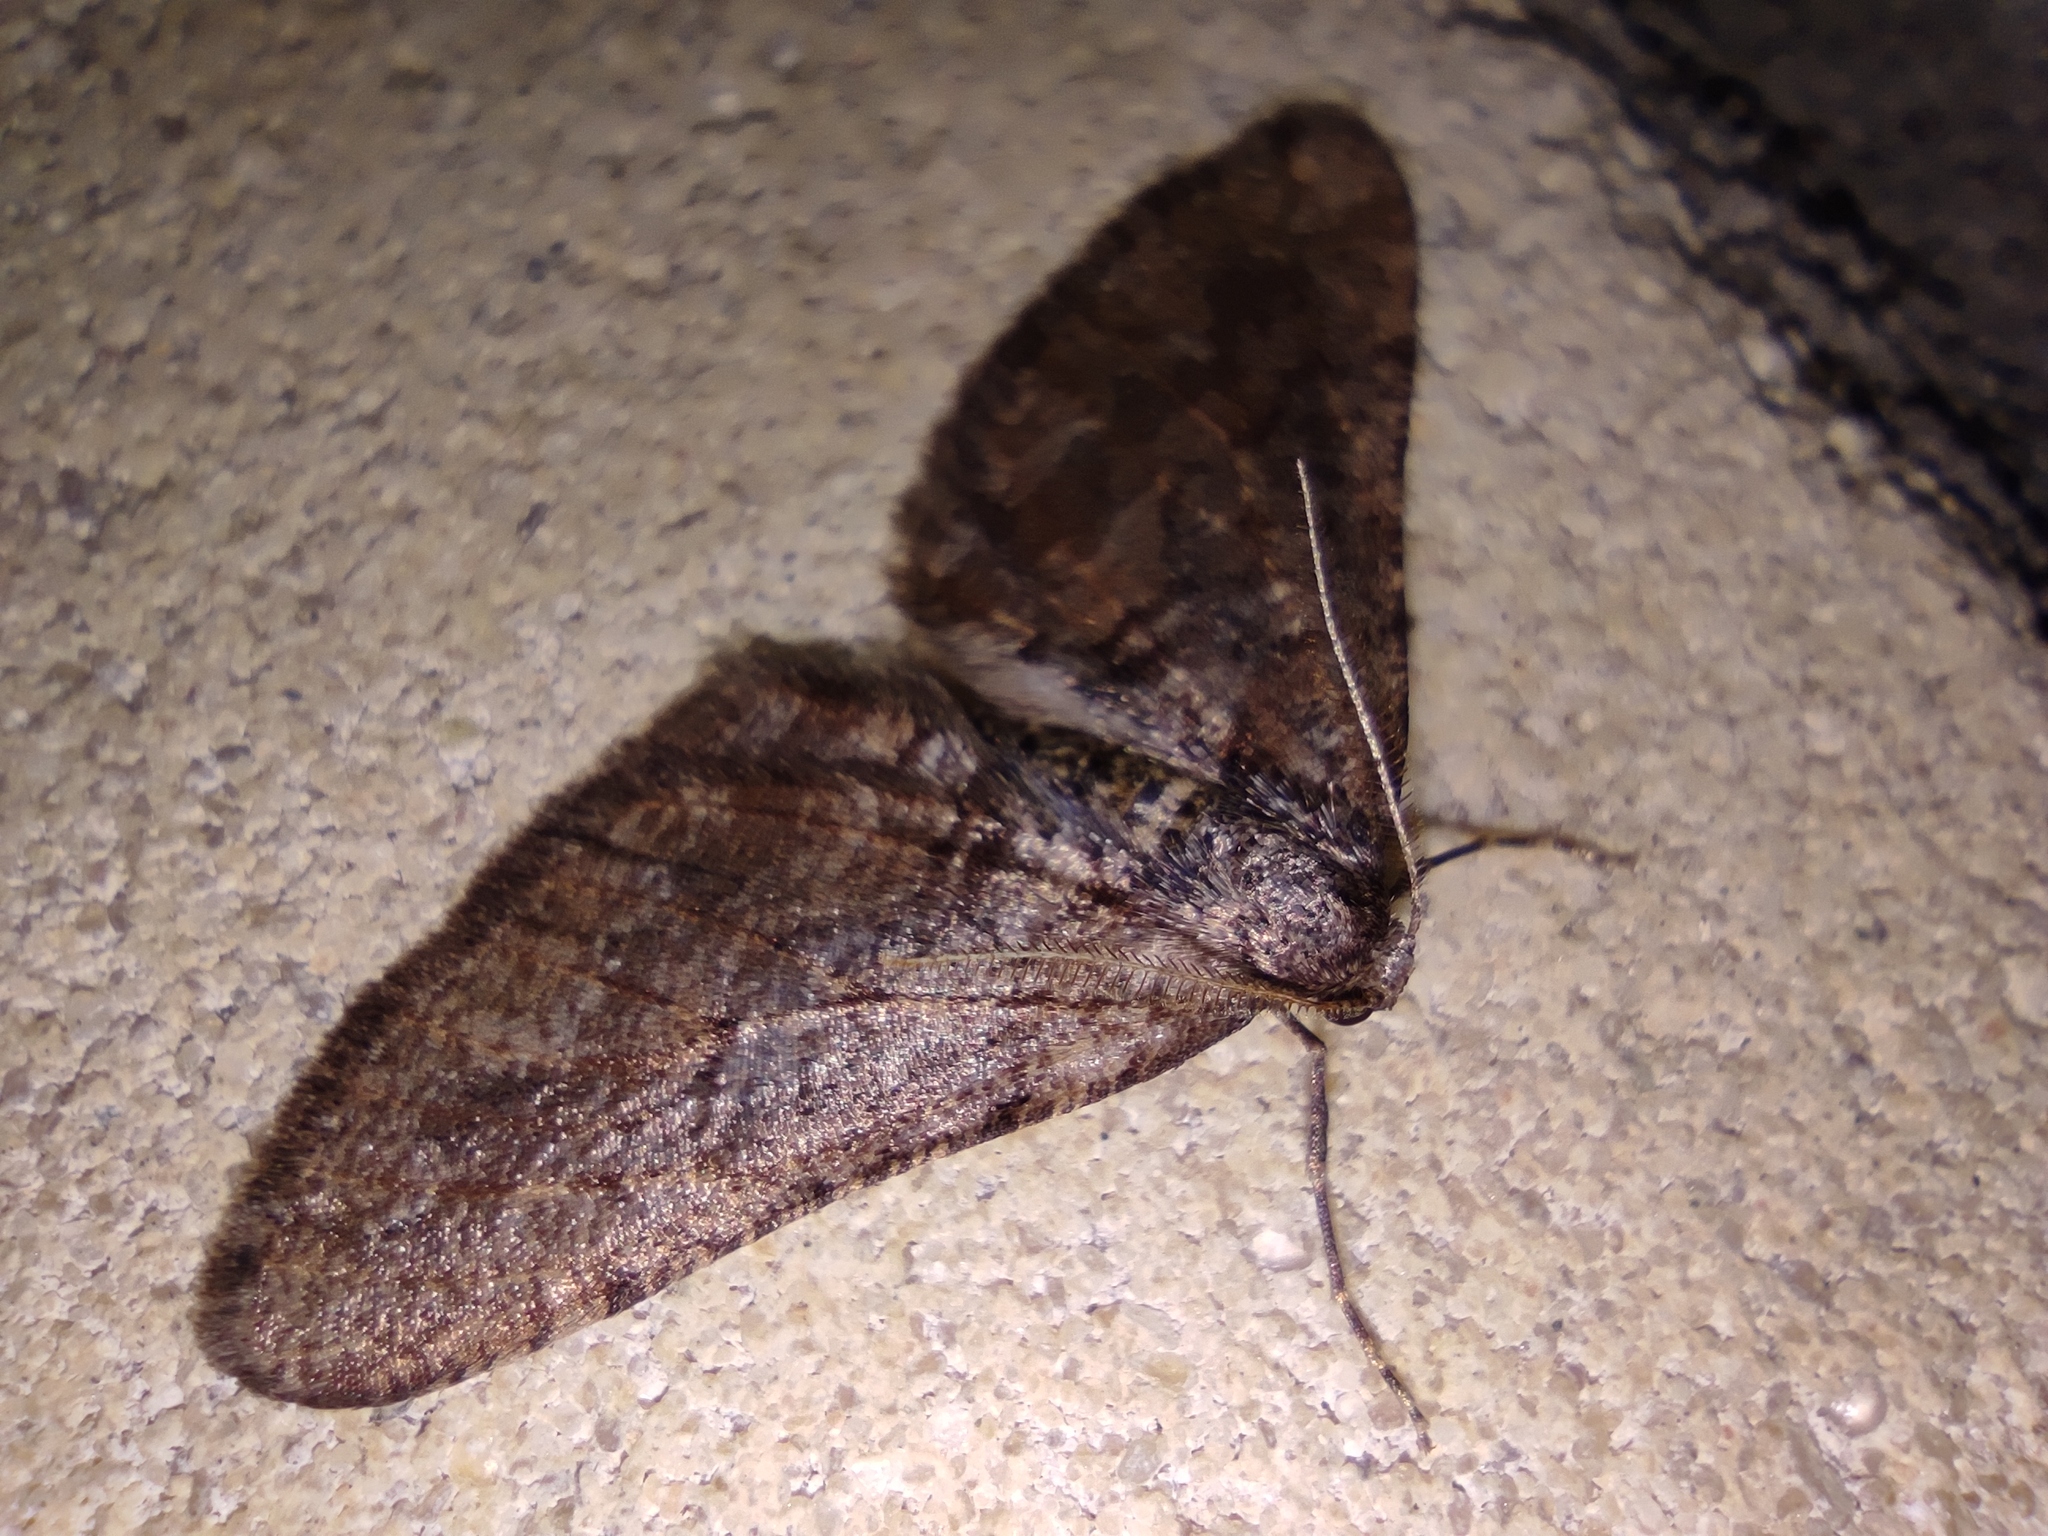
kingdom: Animalia
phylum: Arthropoda
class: Insecta
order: Lepidoptera
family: Geometridae
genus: Agriopis
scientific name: Agriopis bajaria
